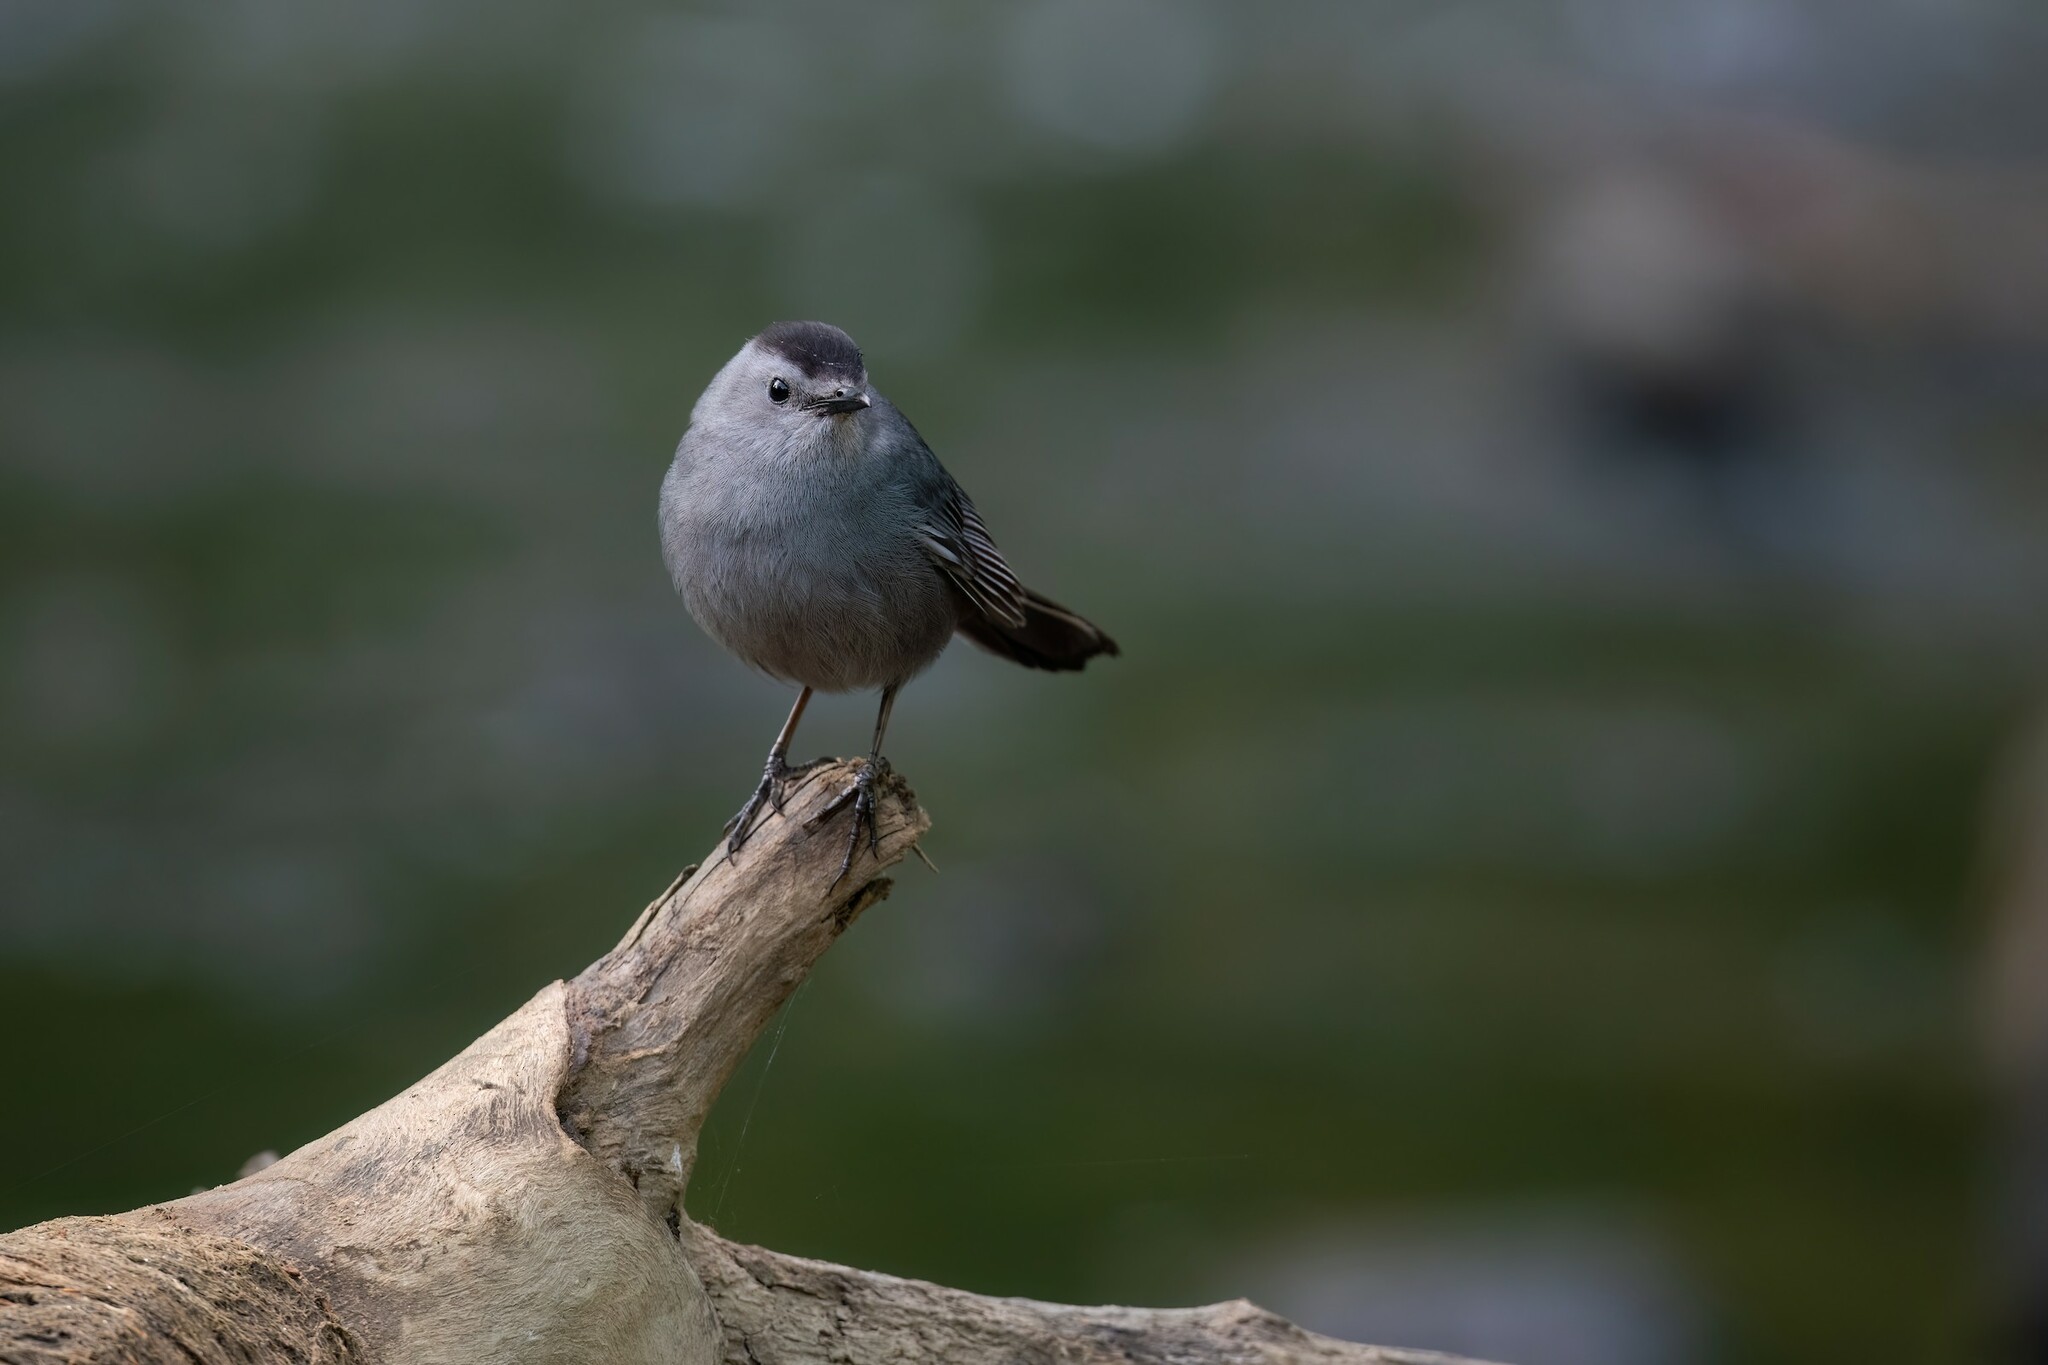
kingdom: Animalia
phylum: Chordata
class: Aves
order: Passeriformes
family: Mimidae
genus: Dumetella
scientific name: Dumetella carolinensis
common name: Gray catbird
